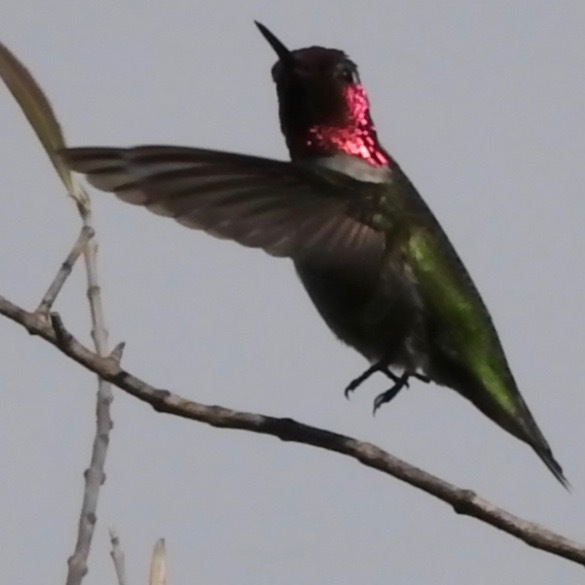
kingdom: Animalia
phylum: Chordata
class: Aves
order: Apodiformes
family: Trochilidae
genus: Calypte
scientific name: Calypte anna
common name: Anna's hummingbird
